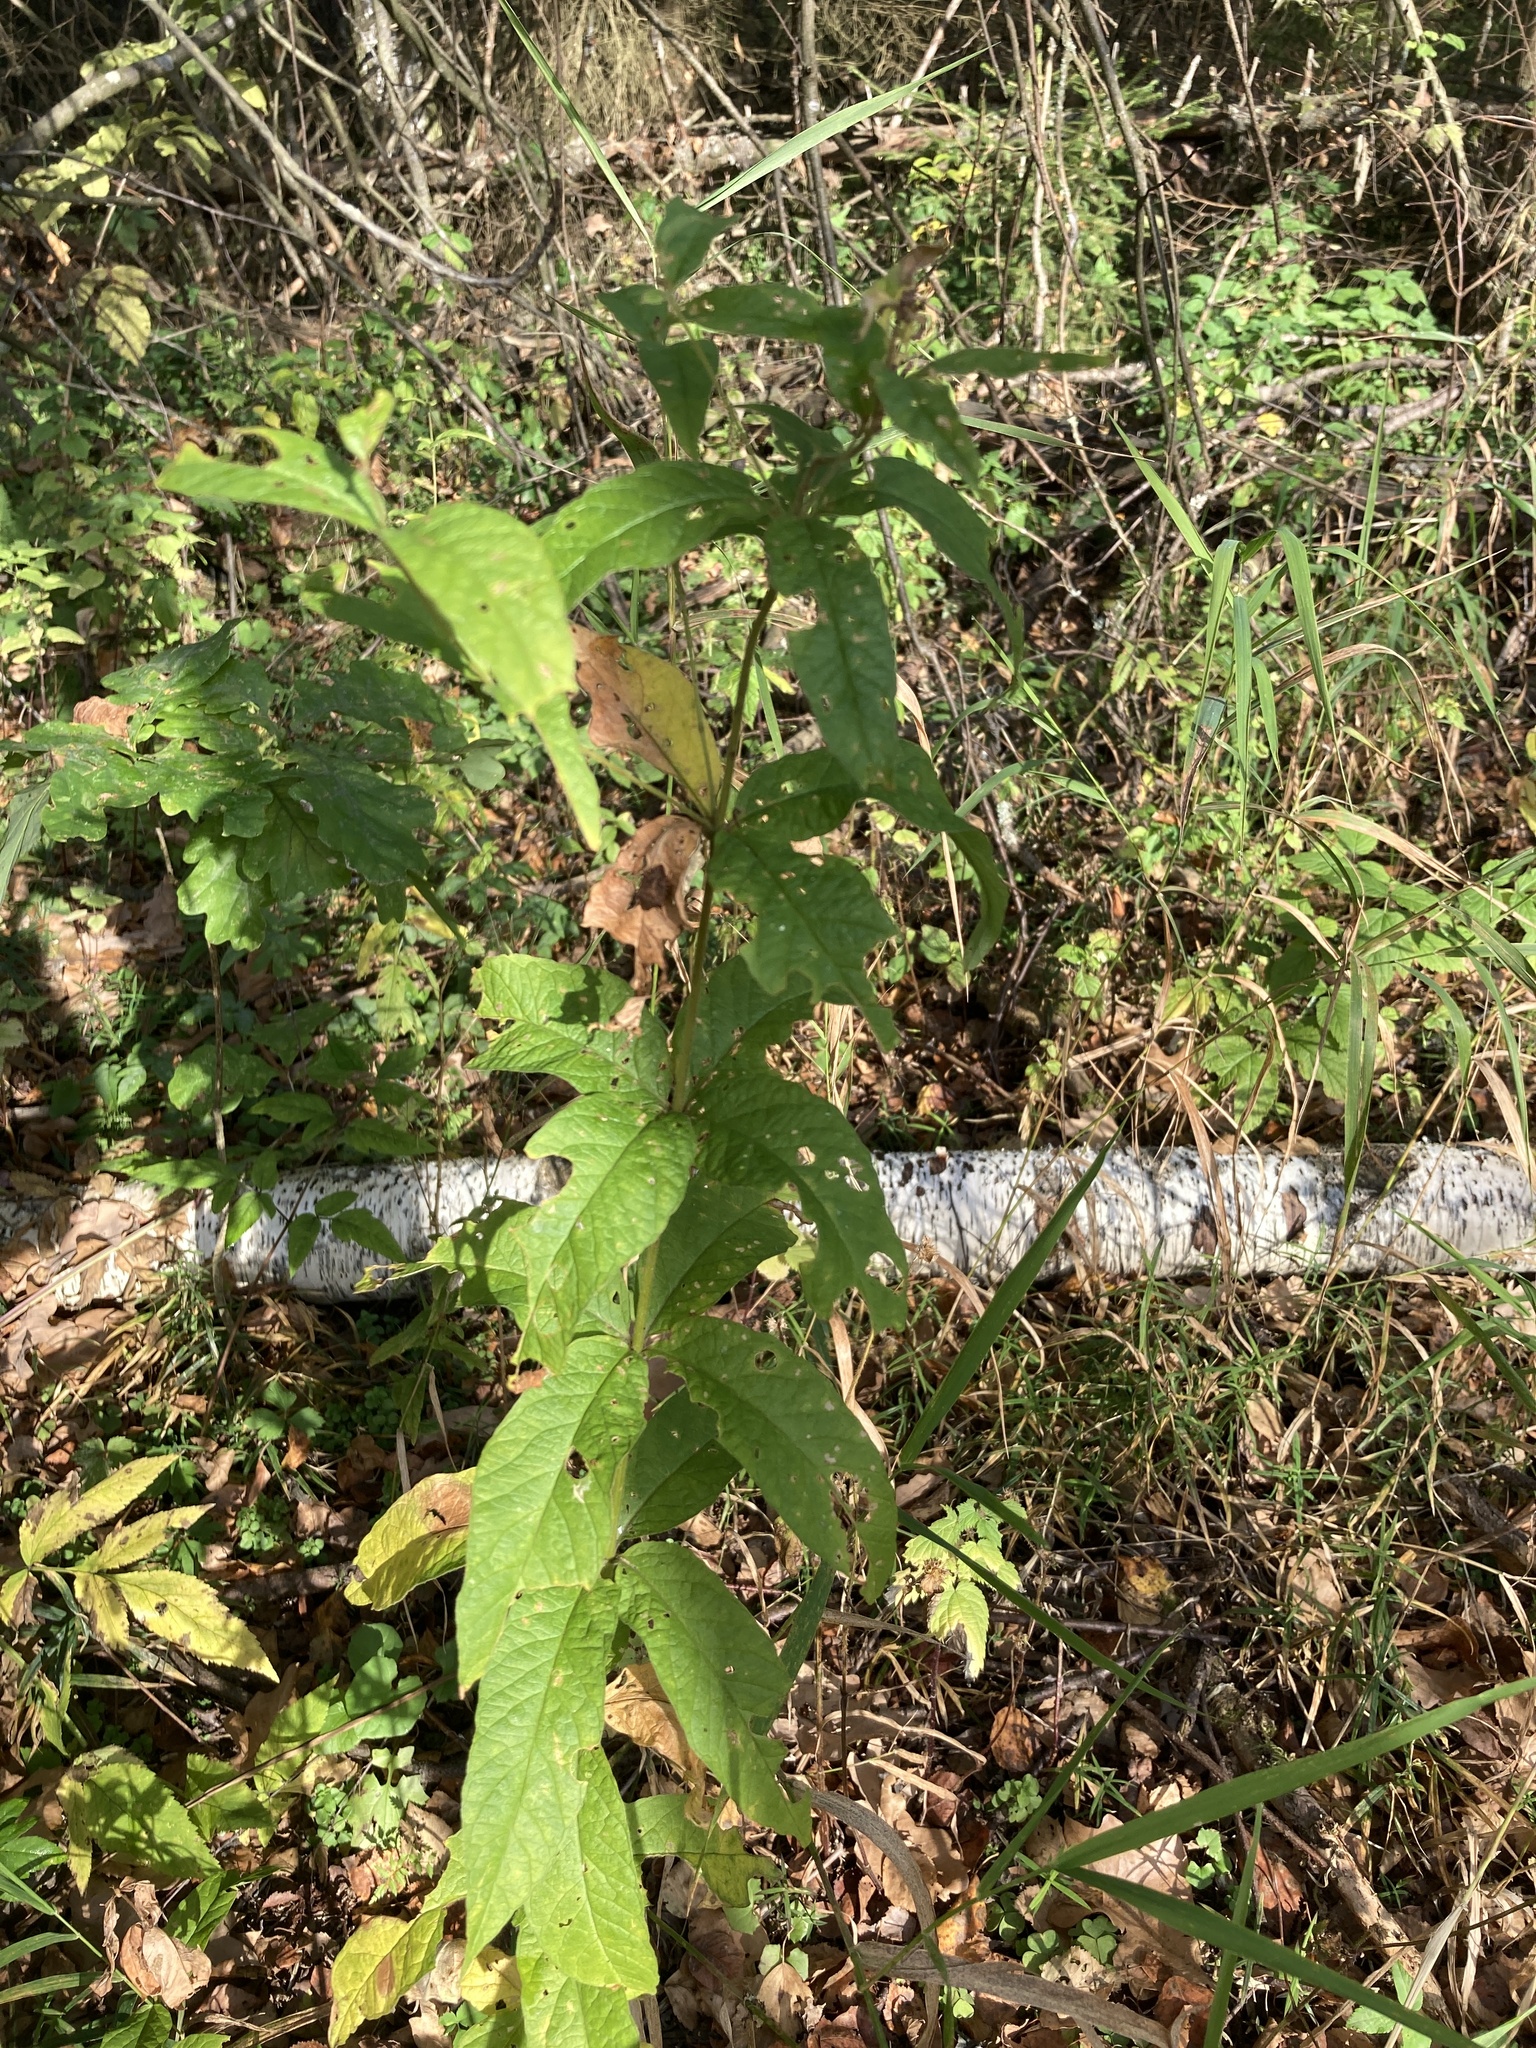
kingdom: Plantae
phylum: Tracheophyta
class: Magnoliopsida
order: Ericales
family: Primulaceae
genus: Lysimachia
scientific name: Lysimachia vulgaris
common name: Yellow loosestrife
